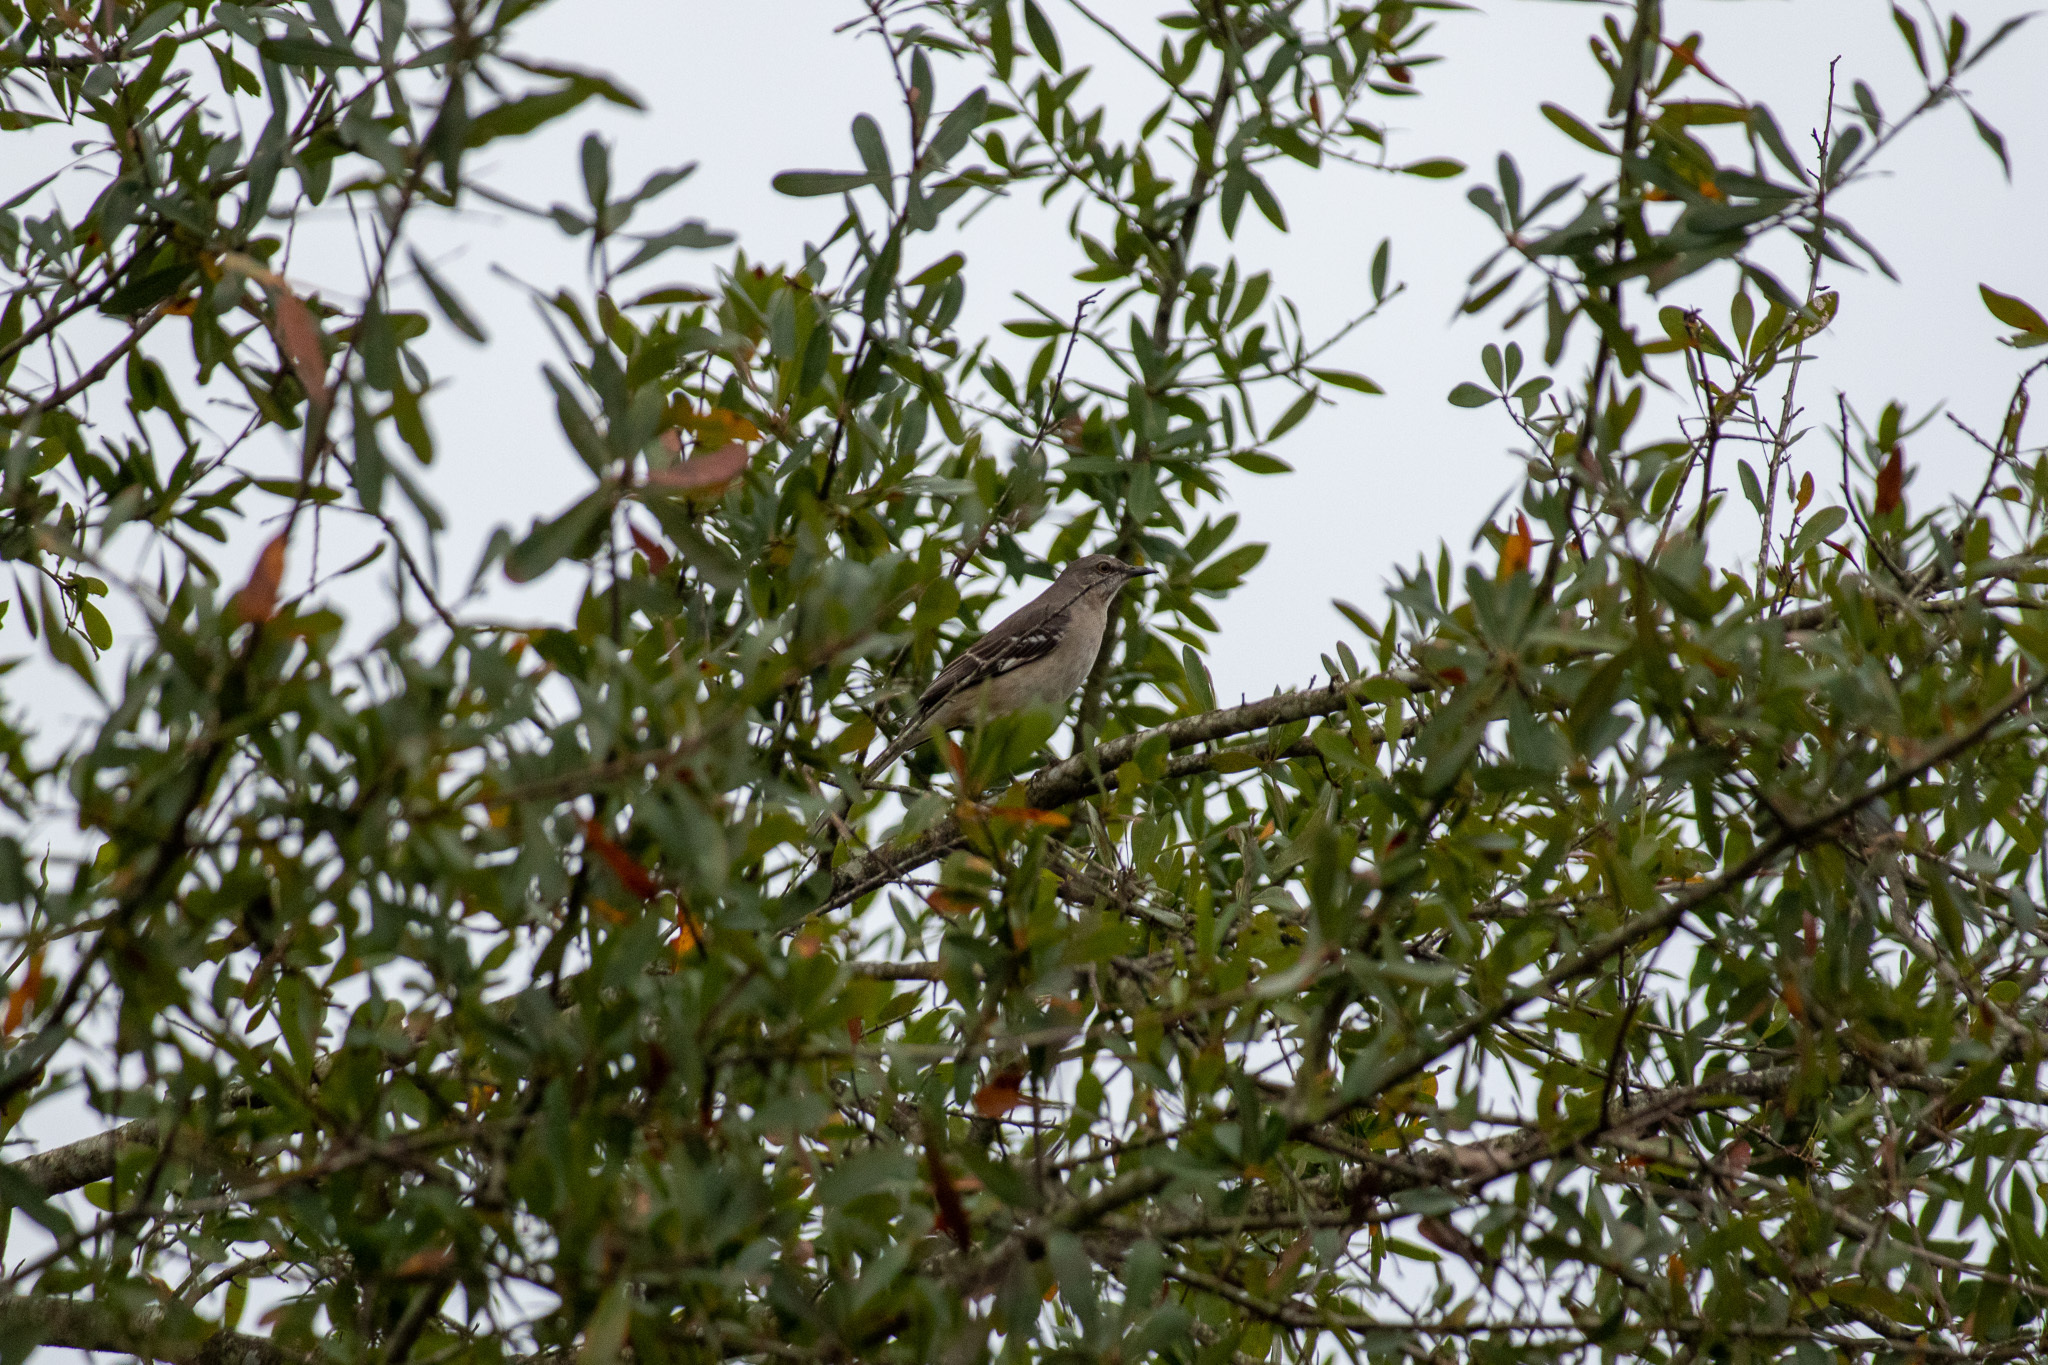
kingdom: Animalia
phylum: Chordata
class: Aves
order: Passeriformes
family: Mimidae
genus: Mimus
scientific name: Mimus polyglottos
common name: Northern mockingbird
